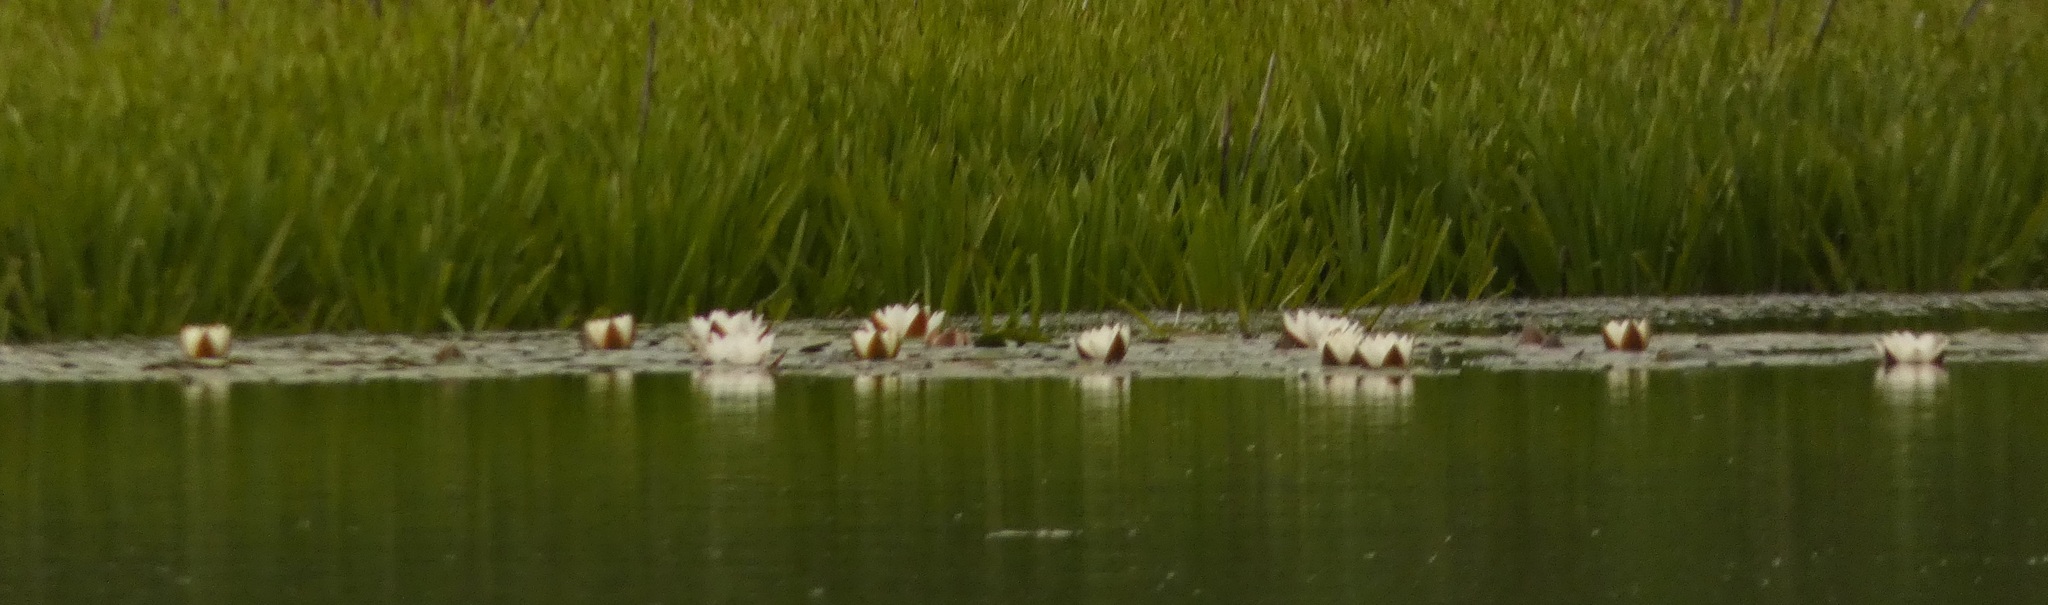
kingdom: Plantae
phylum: Tracheophyta
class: Magnoliopsida
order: Nymphaeales
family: Nymphaeaceae
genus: Nymphaea
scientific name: Nymphaea candida
